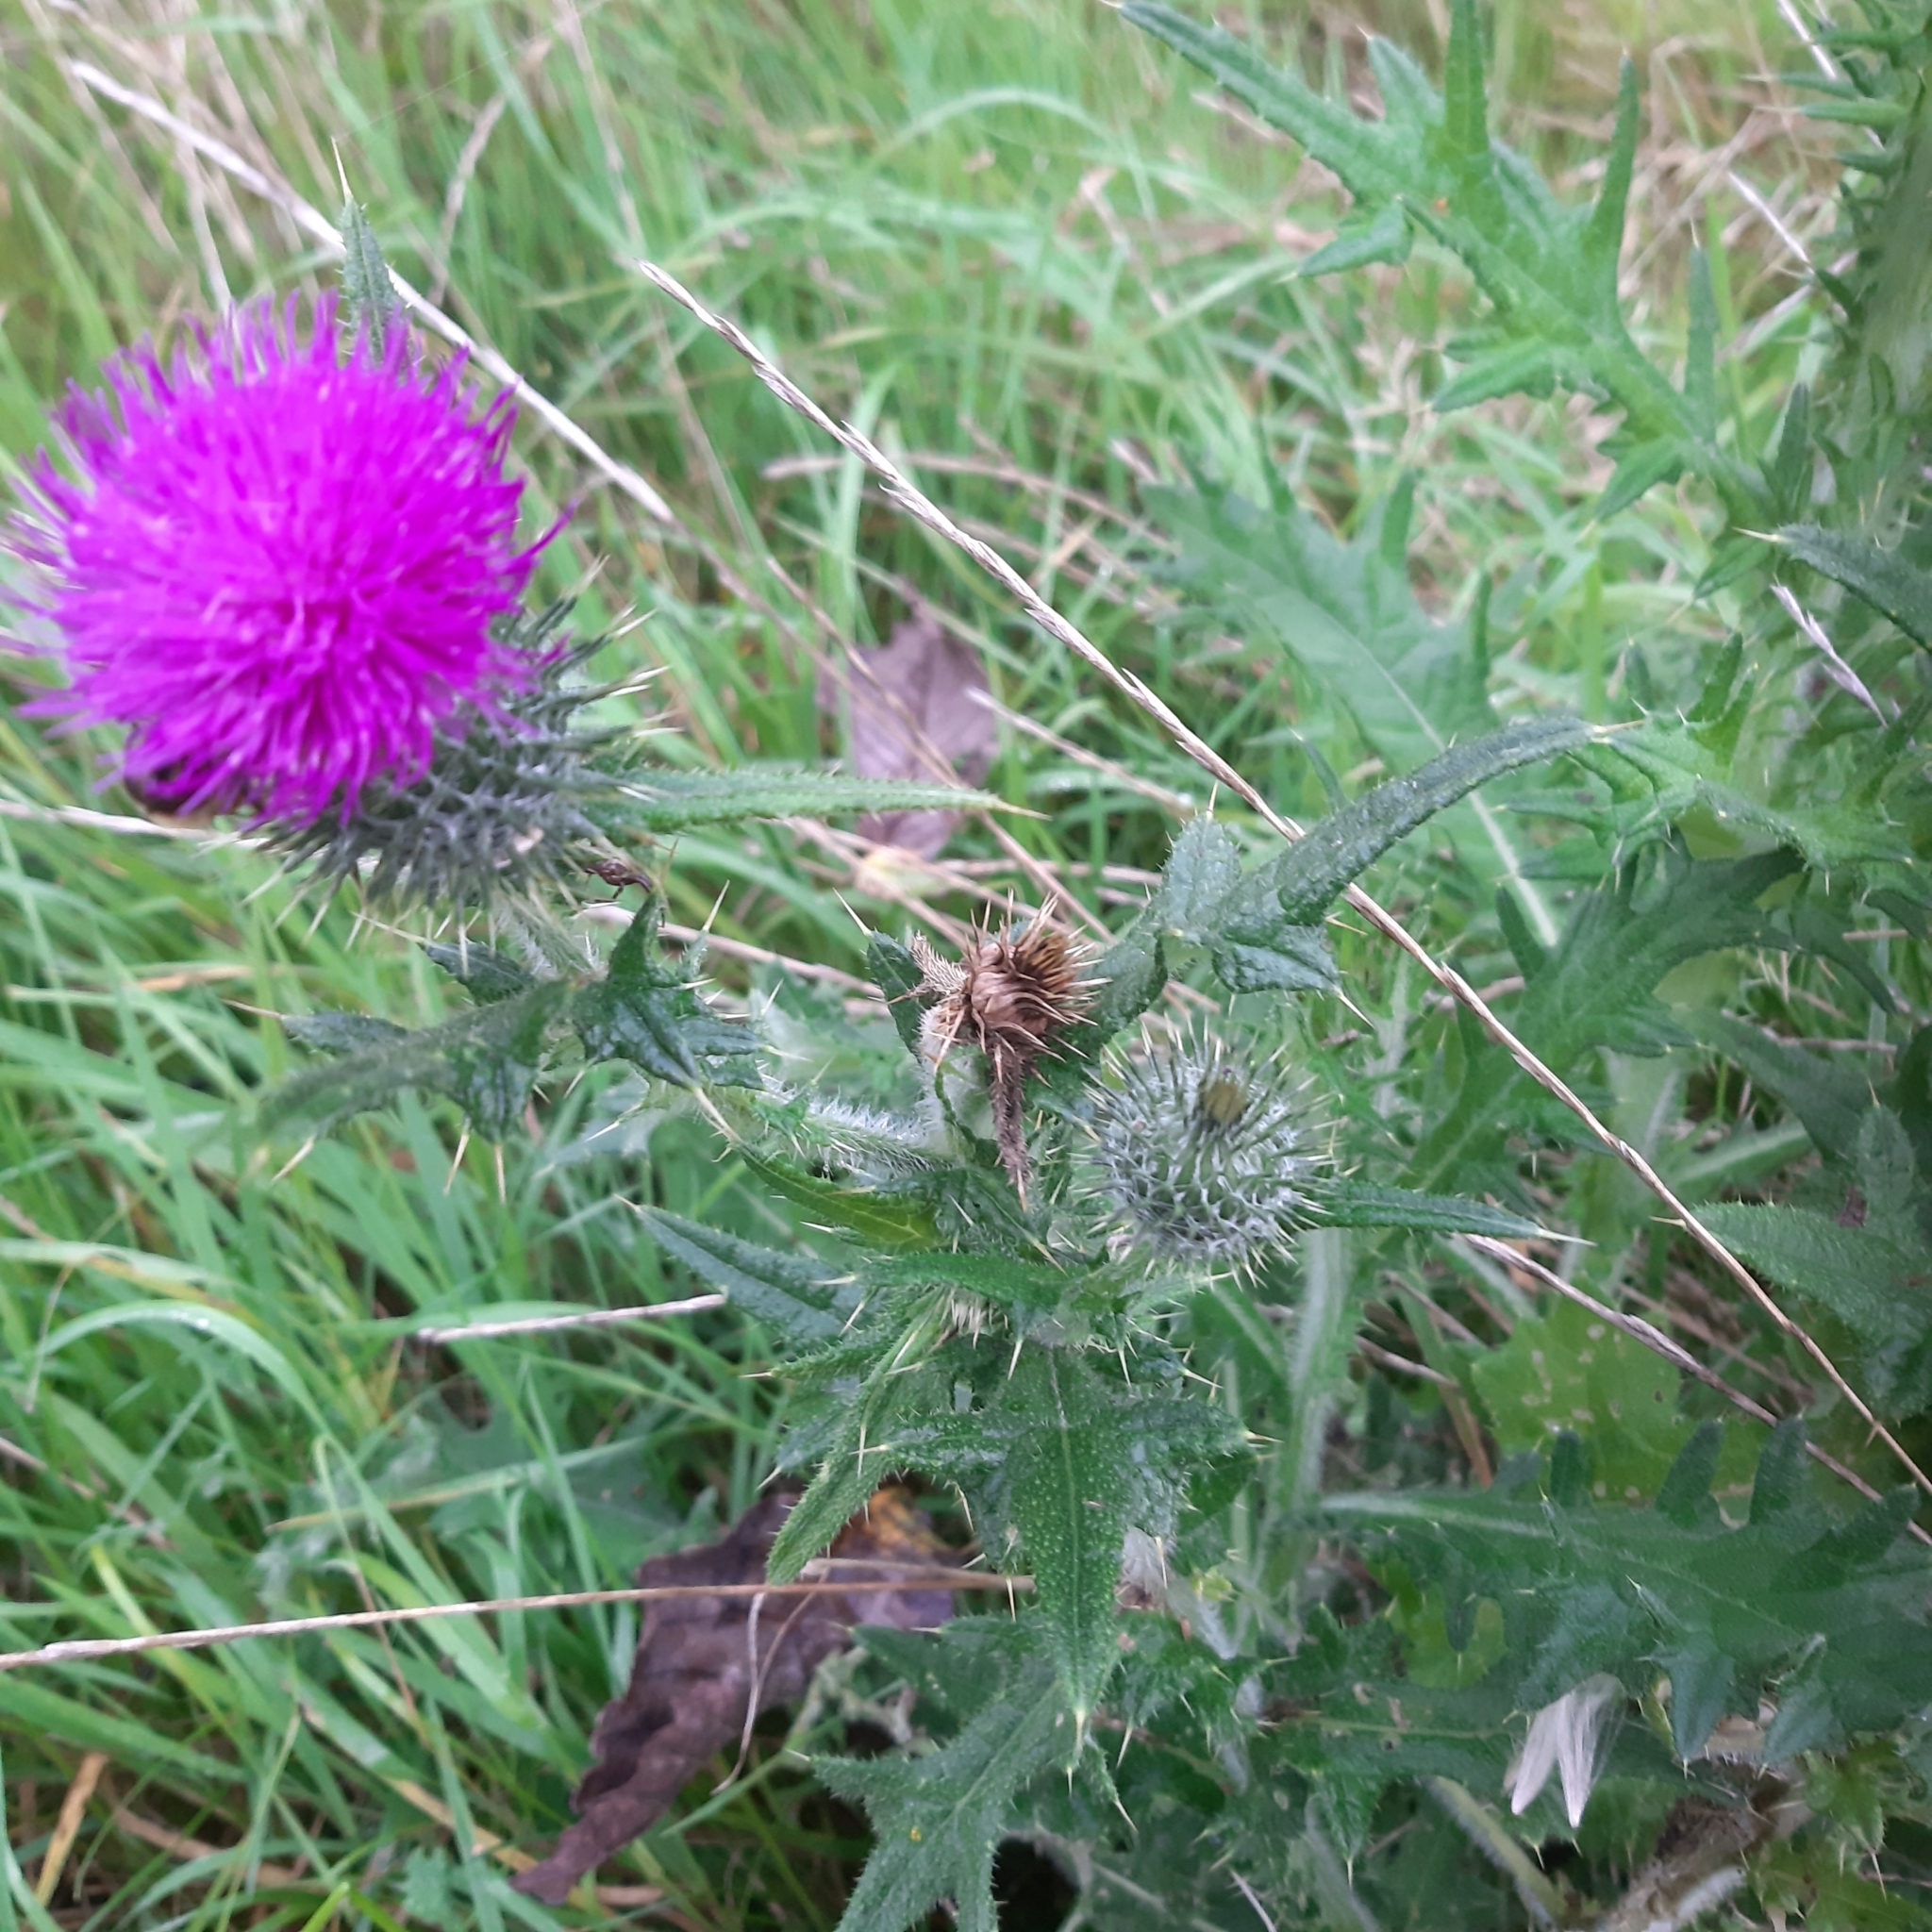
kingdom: Plantae
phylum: Tracheophyta
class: Magnoliopsida
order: Asterales
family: Asteraceae
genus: Cirsium
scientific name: Cirsium vulgare
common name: Bull thistle
